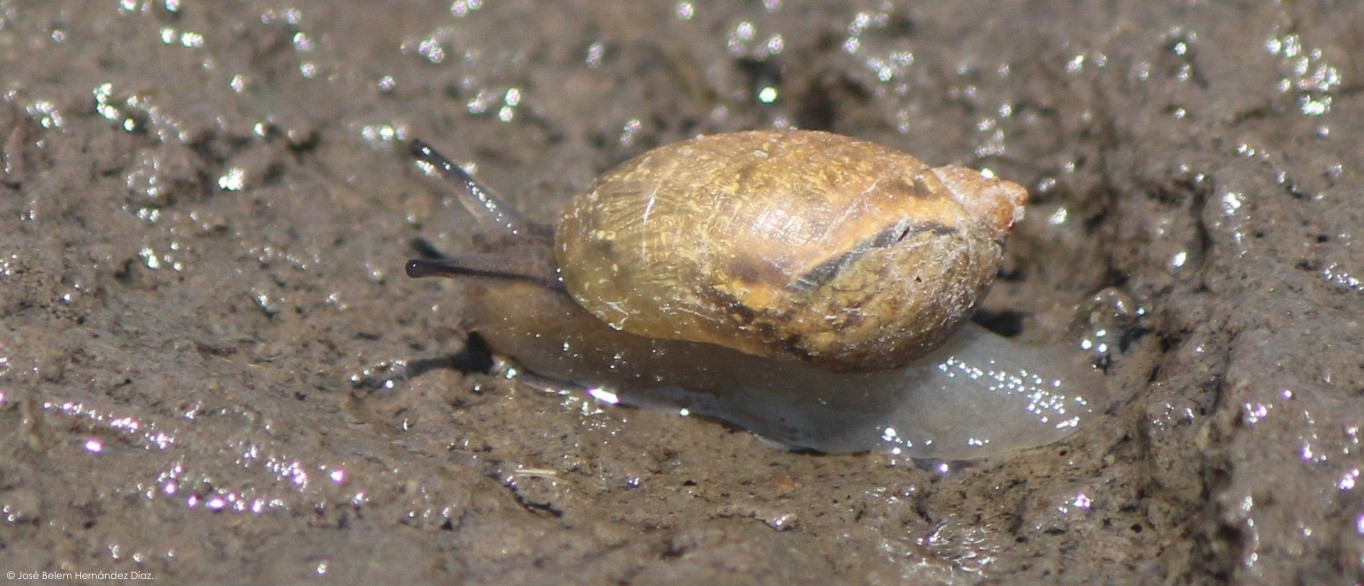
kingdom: Animalia
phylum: Mollusca
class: Gastropoda
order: Stylommatophora
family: Succineidae
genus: Succinea
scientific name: Succinea
